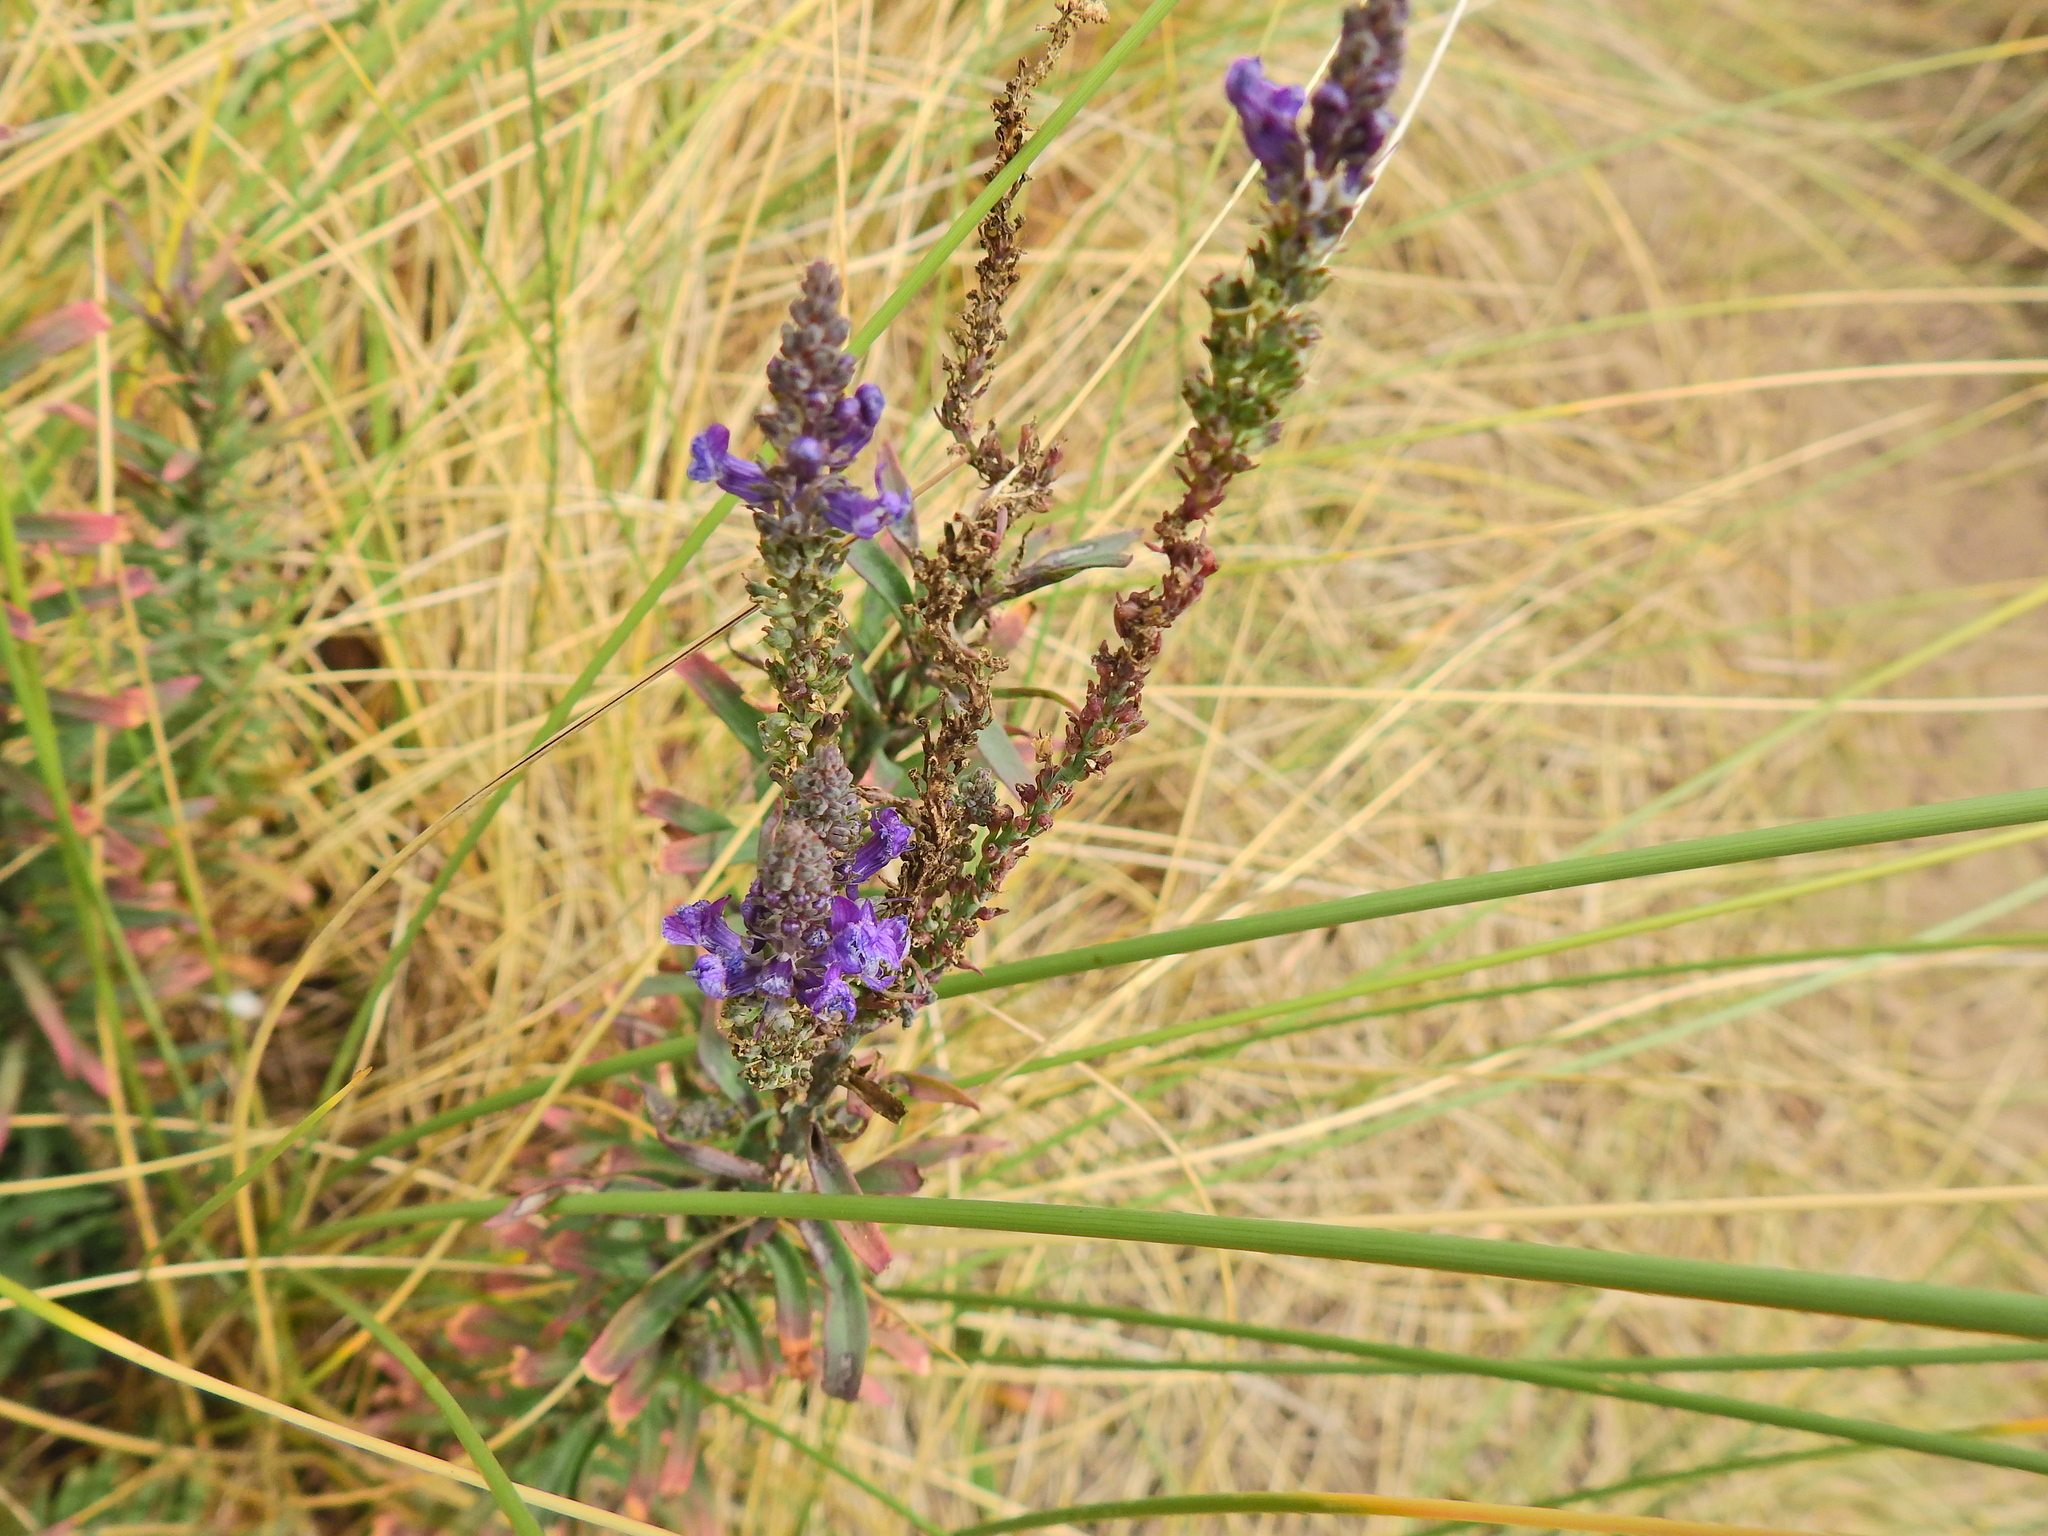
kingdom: Plantae
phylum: Tracheophyta
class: Magnoliopsida
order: Lamiales
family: Plantaginaceae
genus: Linaria
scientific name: Linaria purpurea
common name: Purple toadflax
